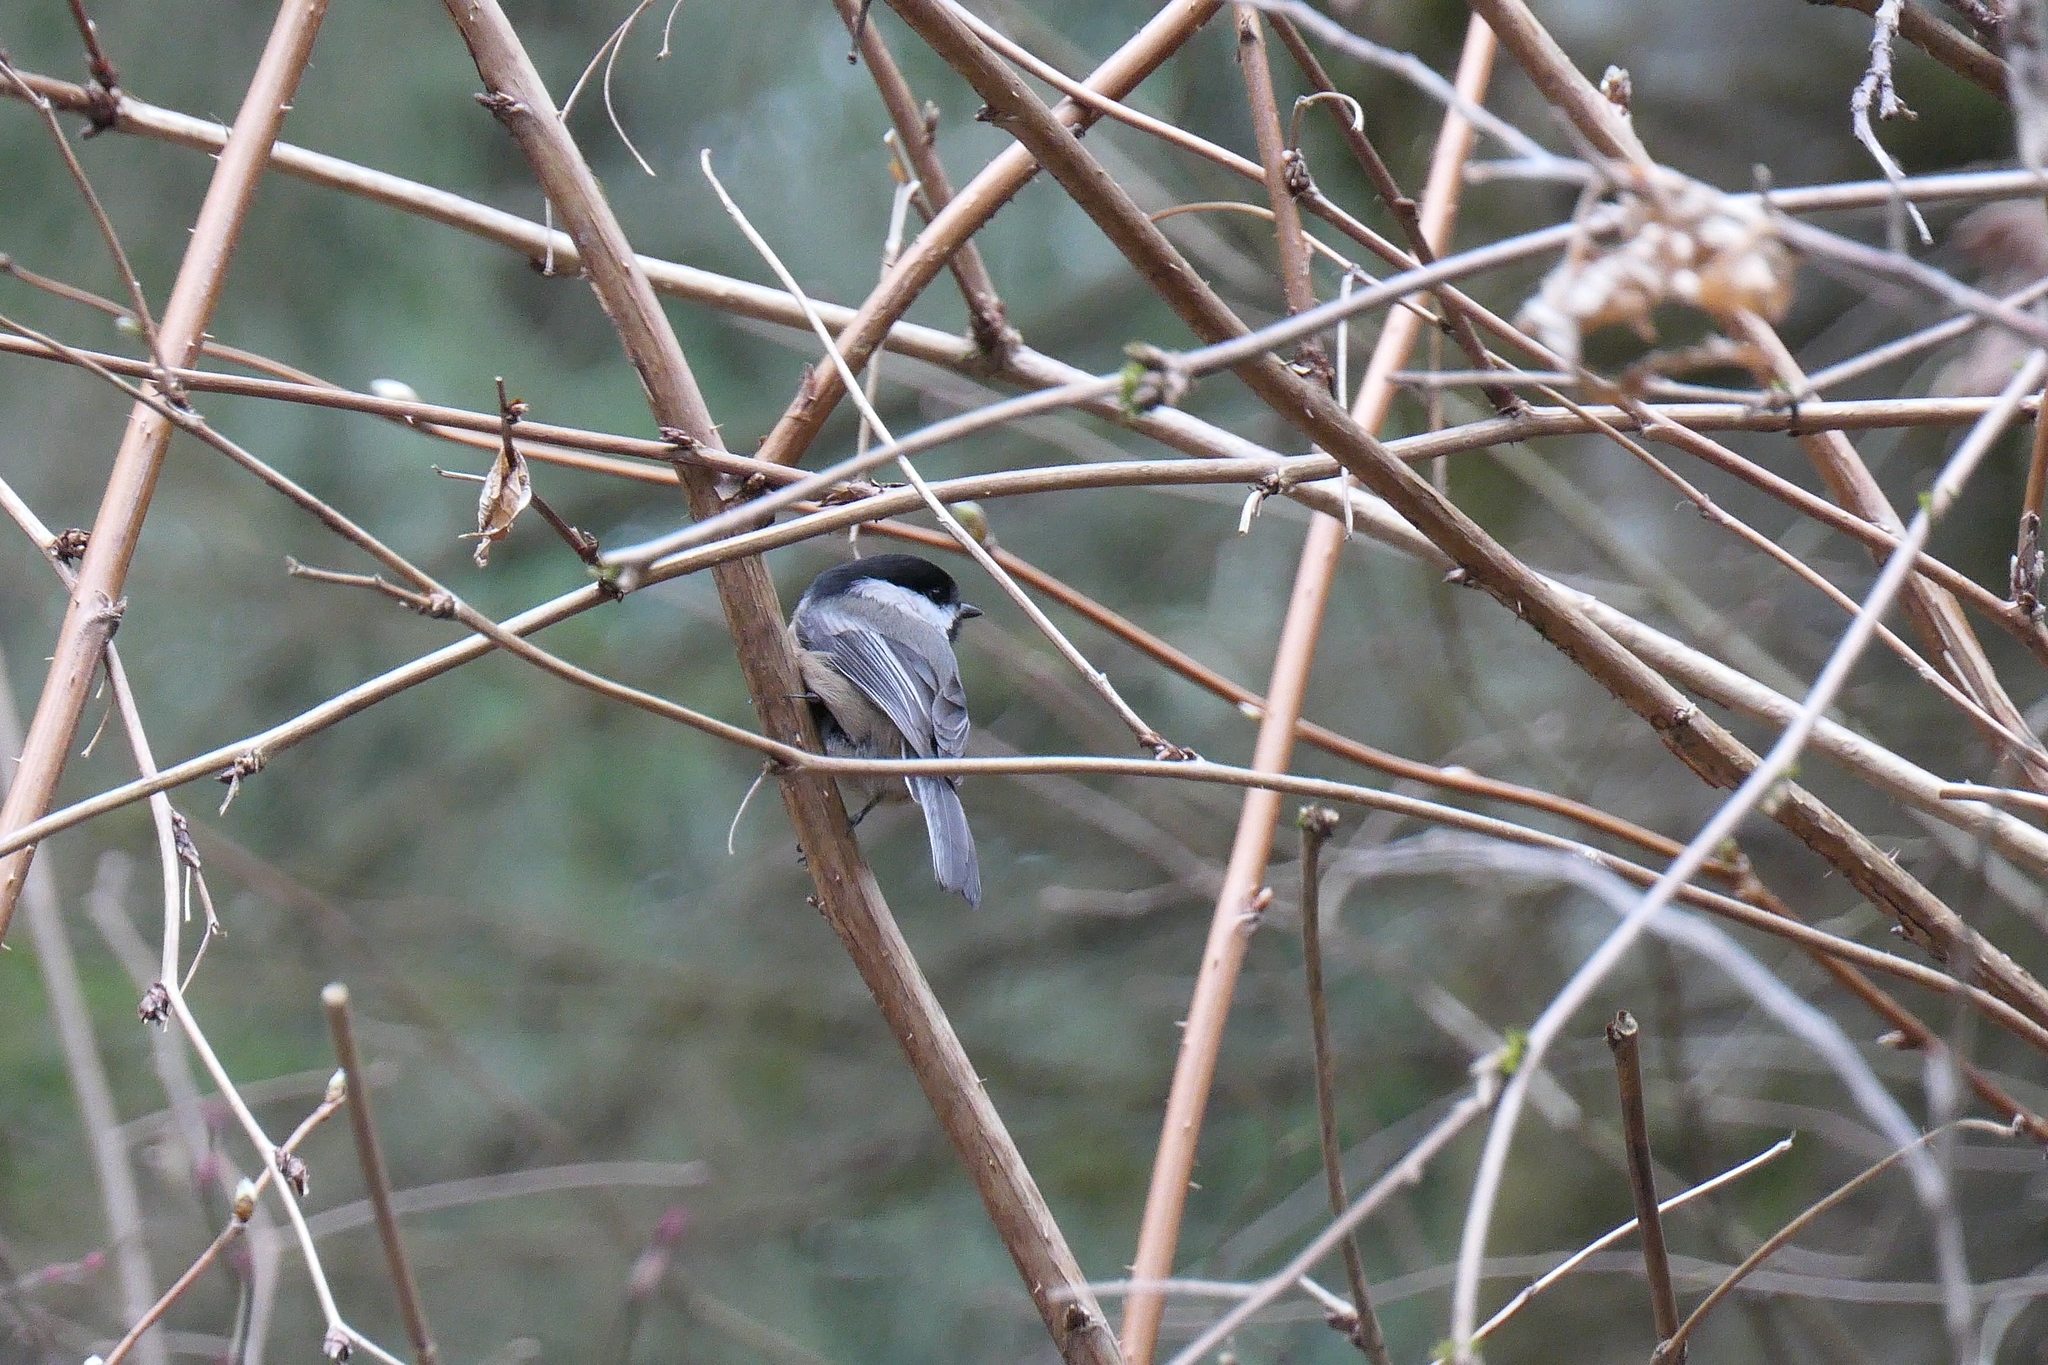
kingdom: Animalia
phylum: Chordata
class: Aves
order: Passeriformes
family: Paridae
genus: Poecile
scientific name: Poecile atricapillus
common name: Black-capped chickadee
